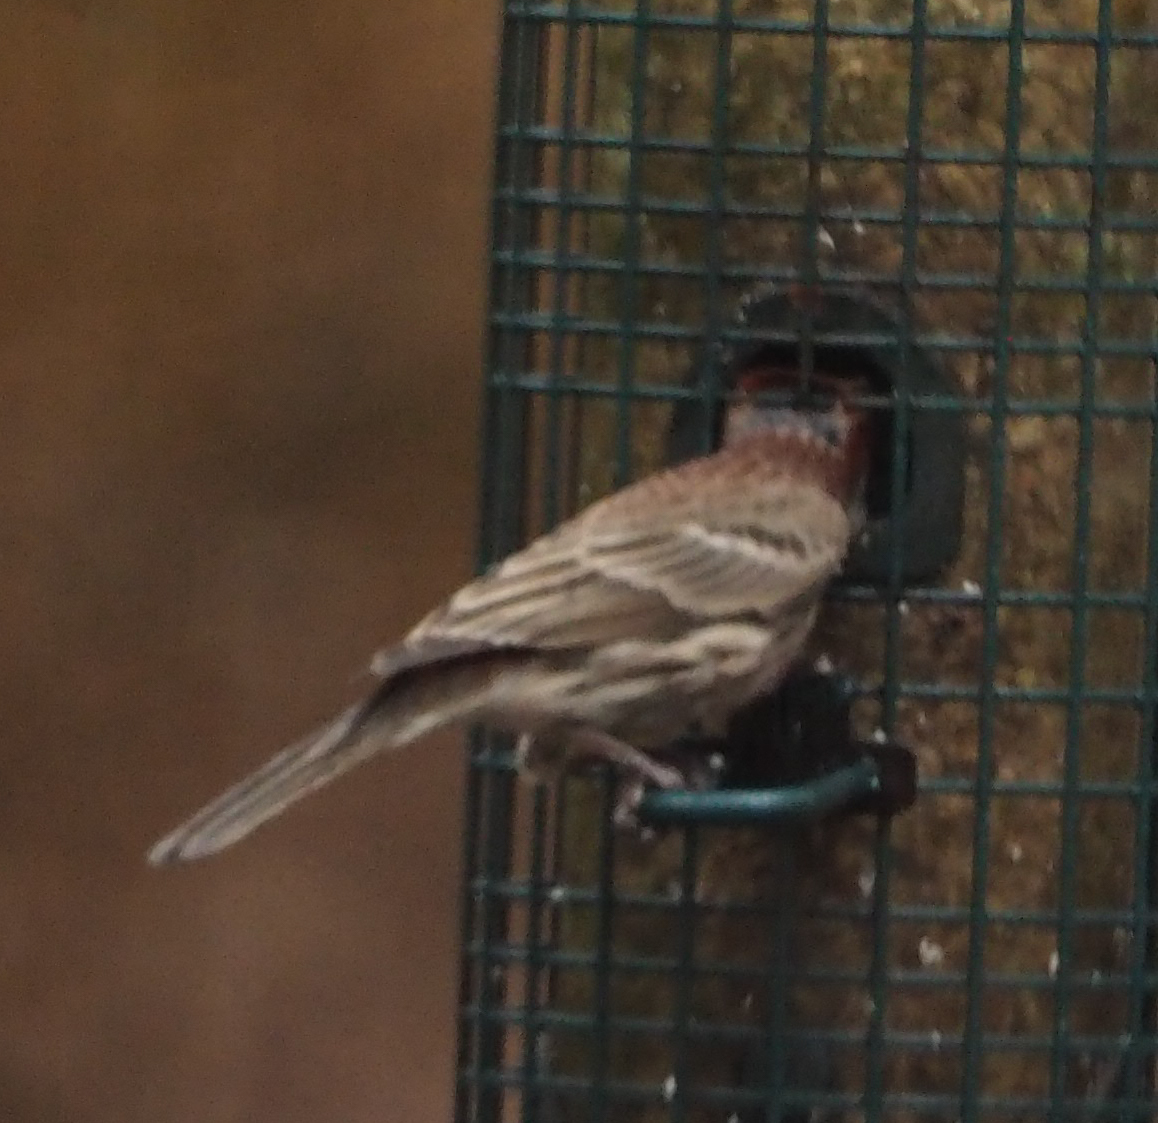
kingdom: Animalia
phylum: Chordata
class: Aves
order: Passeriformes
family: Fringillidae
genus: Haemorhous
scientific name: Haemorhous mexicanus
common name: House finch
